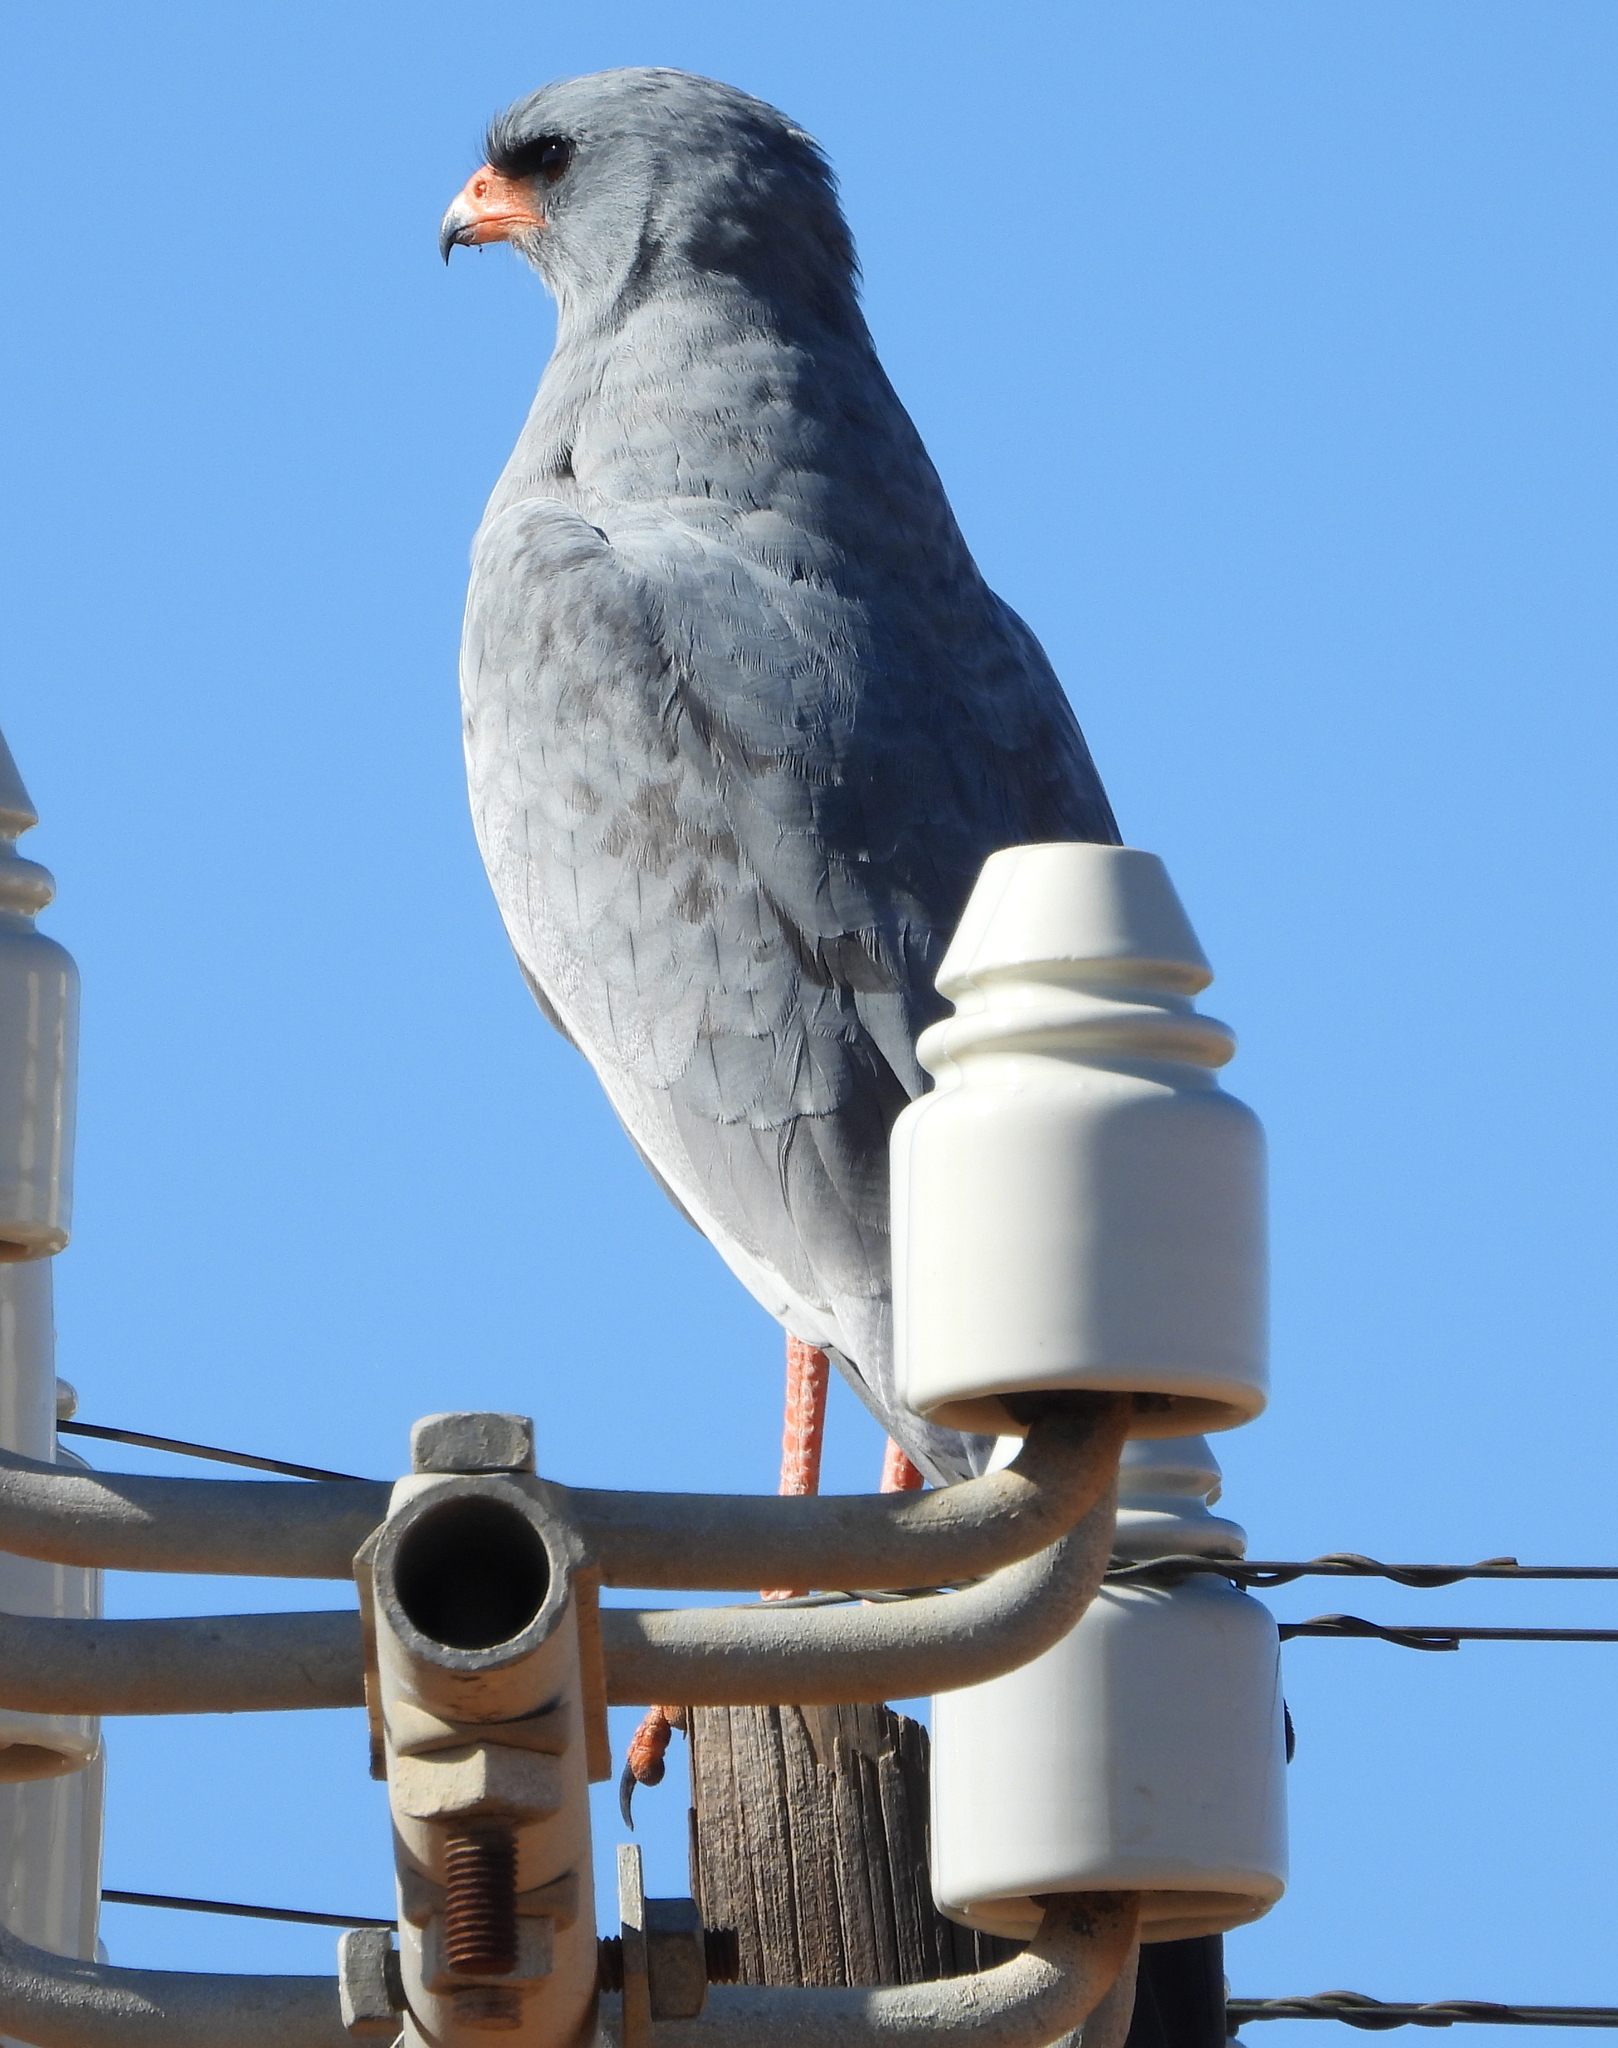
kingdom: Animalia
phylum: Chordata
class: Aves
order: Accipitriformes
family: Accipitridae
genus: Melierax
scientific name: Melierax canorus
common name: Pale chanting-goshawk
